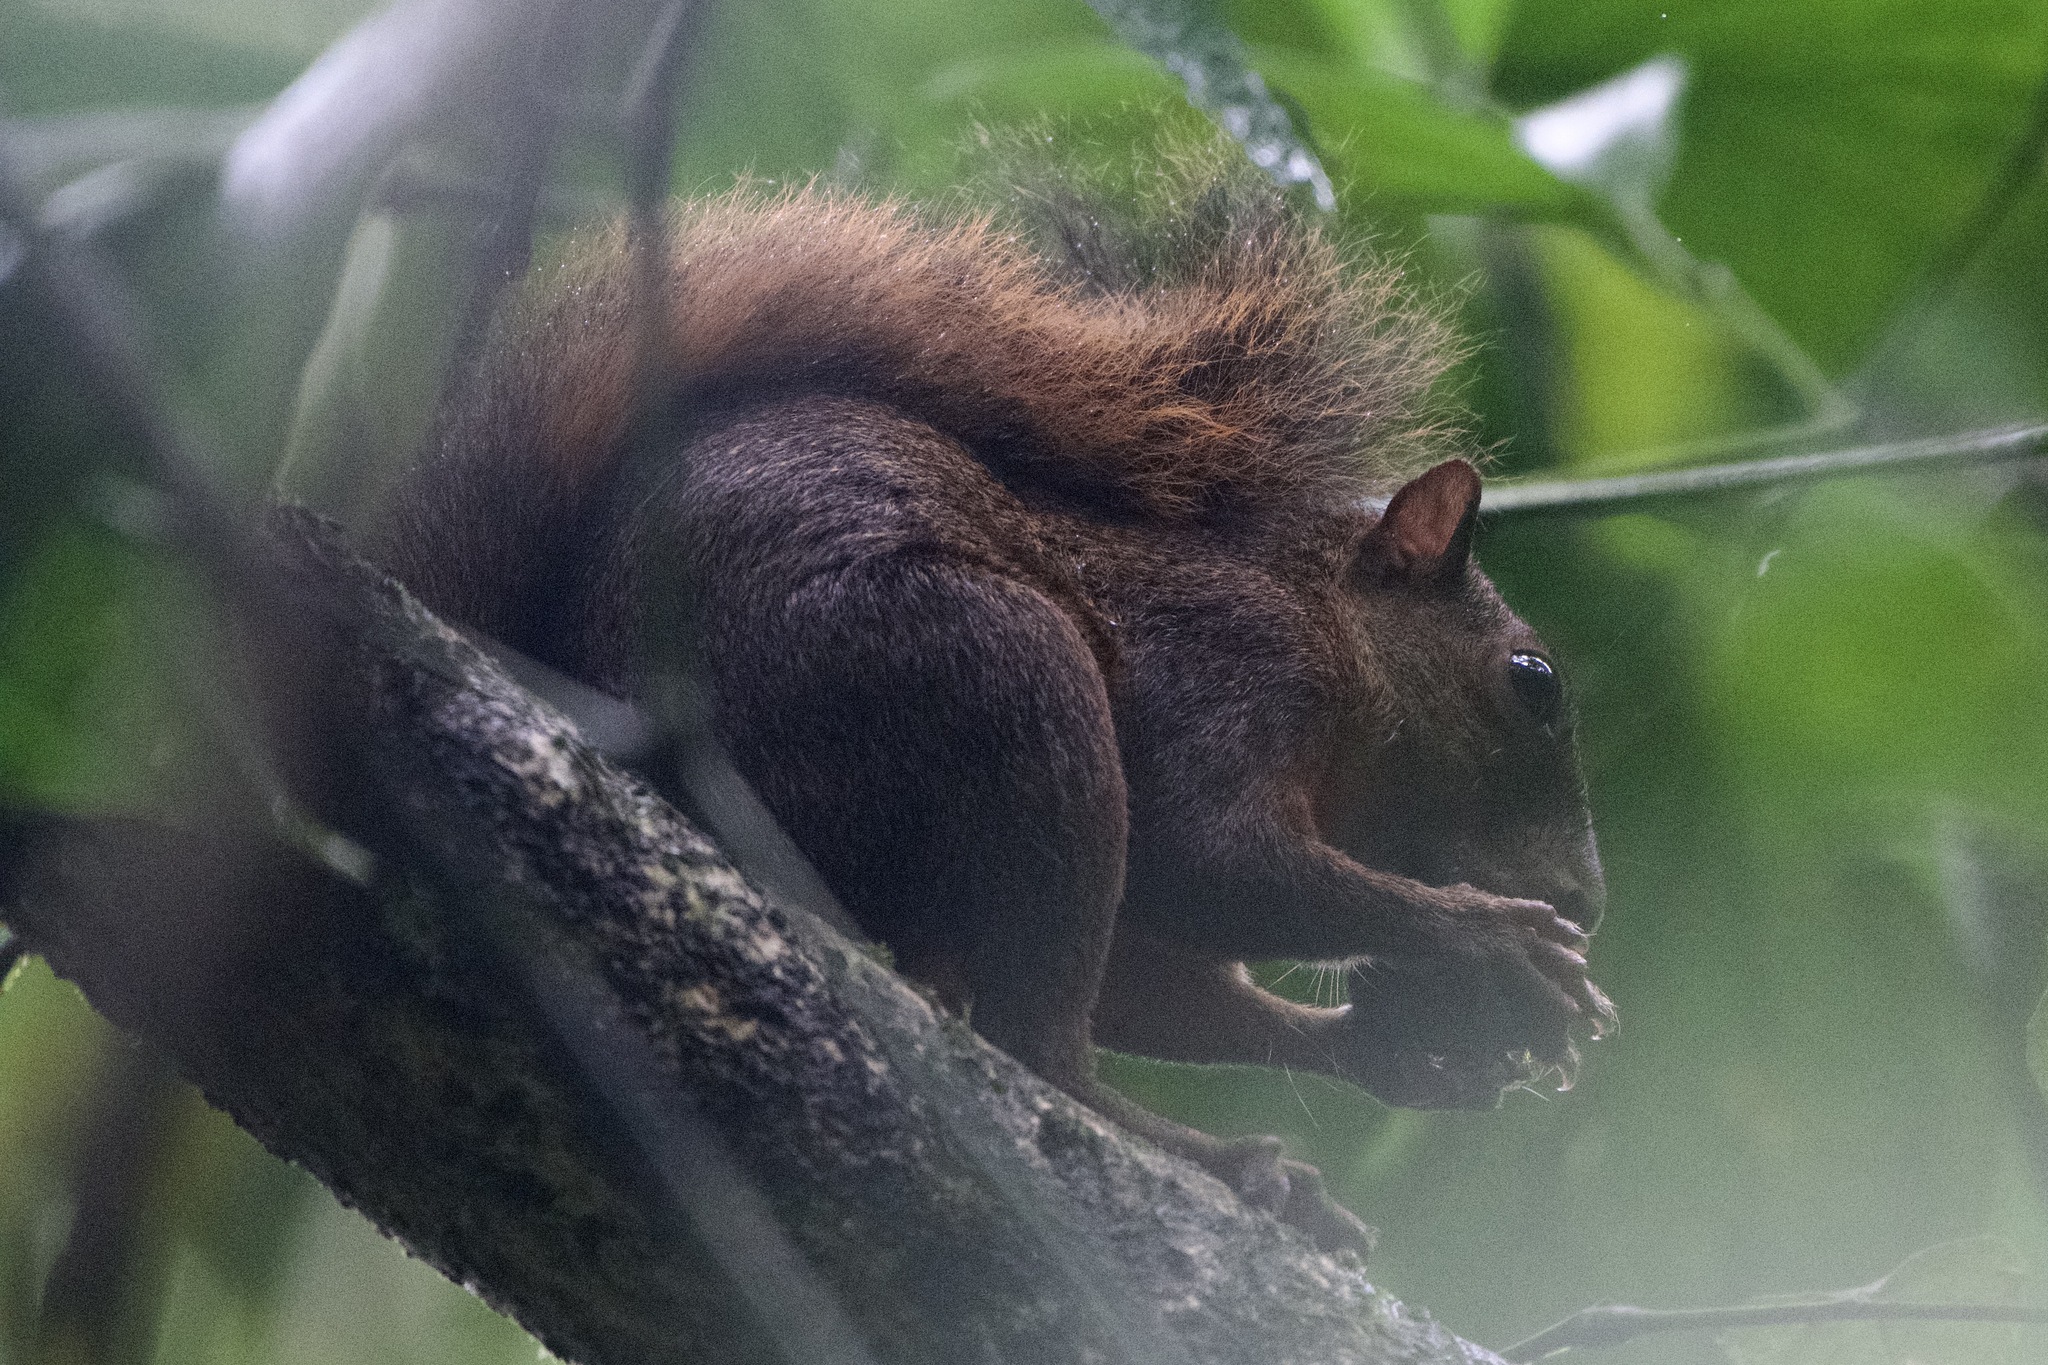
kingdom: Animalia
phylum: Chordata
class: Mammalia
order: Rodentia
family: Sciuridae
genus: Sciurus
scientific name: Sciurus granatensis
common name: Red-tailed squirrel
